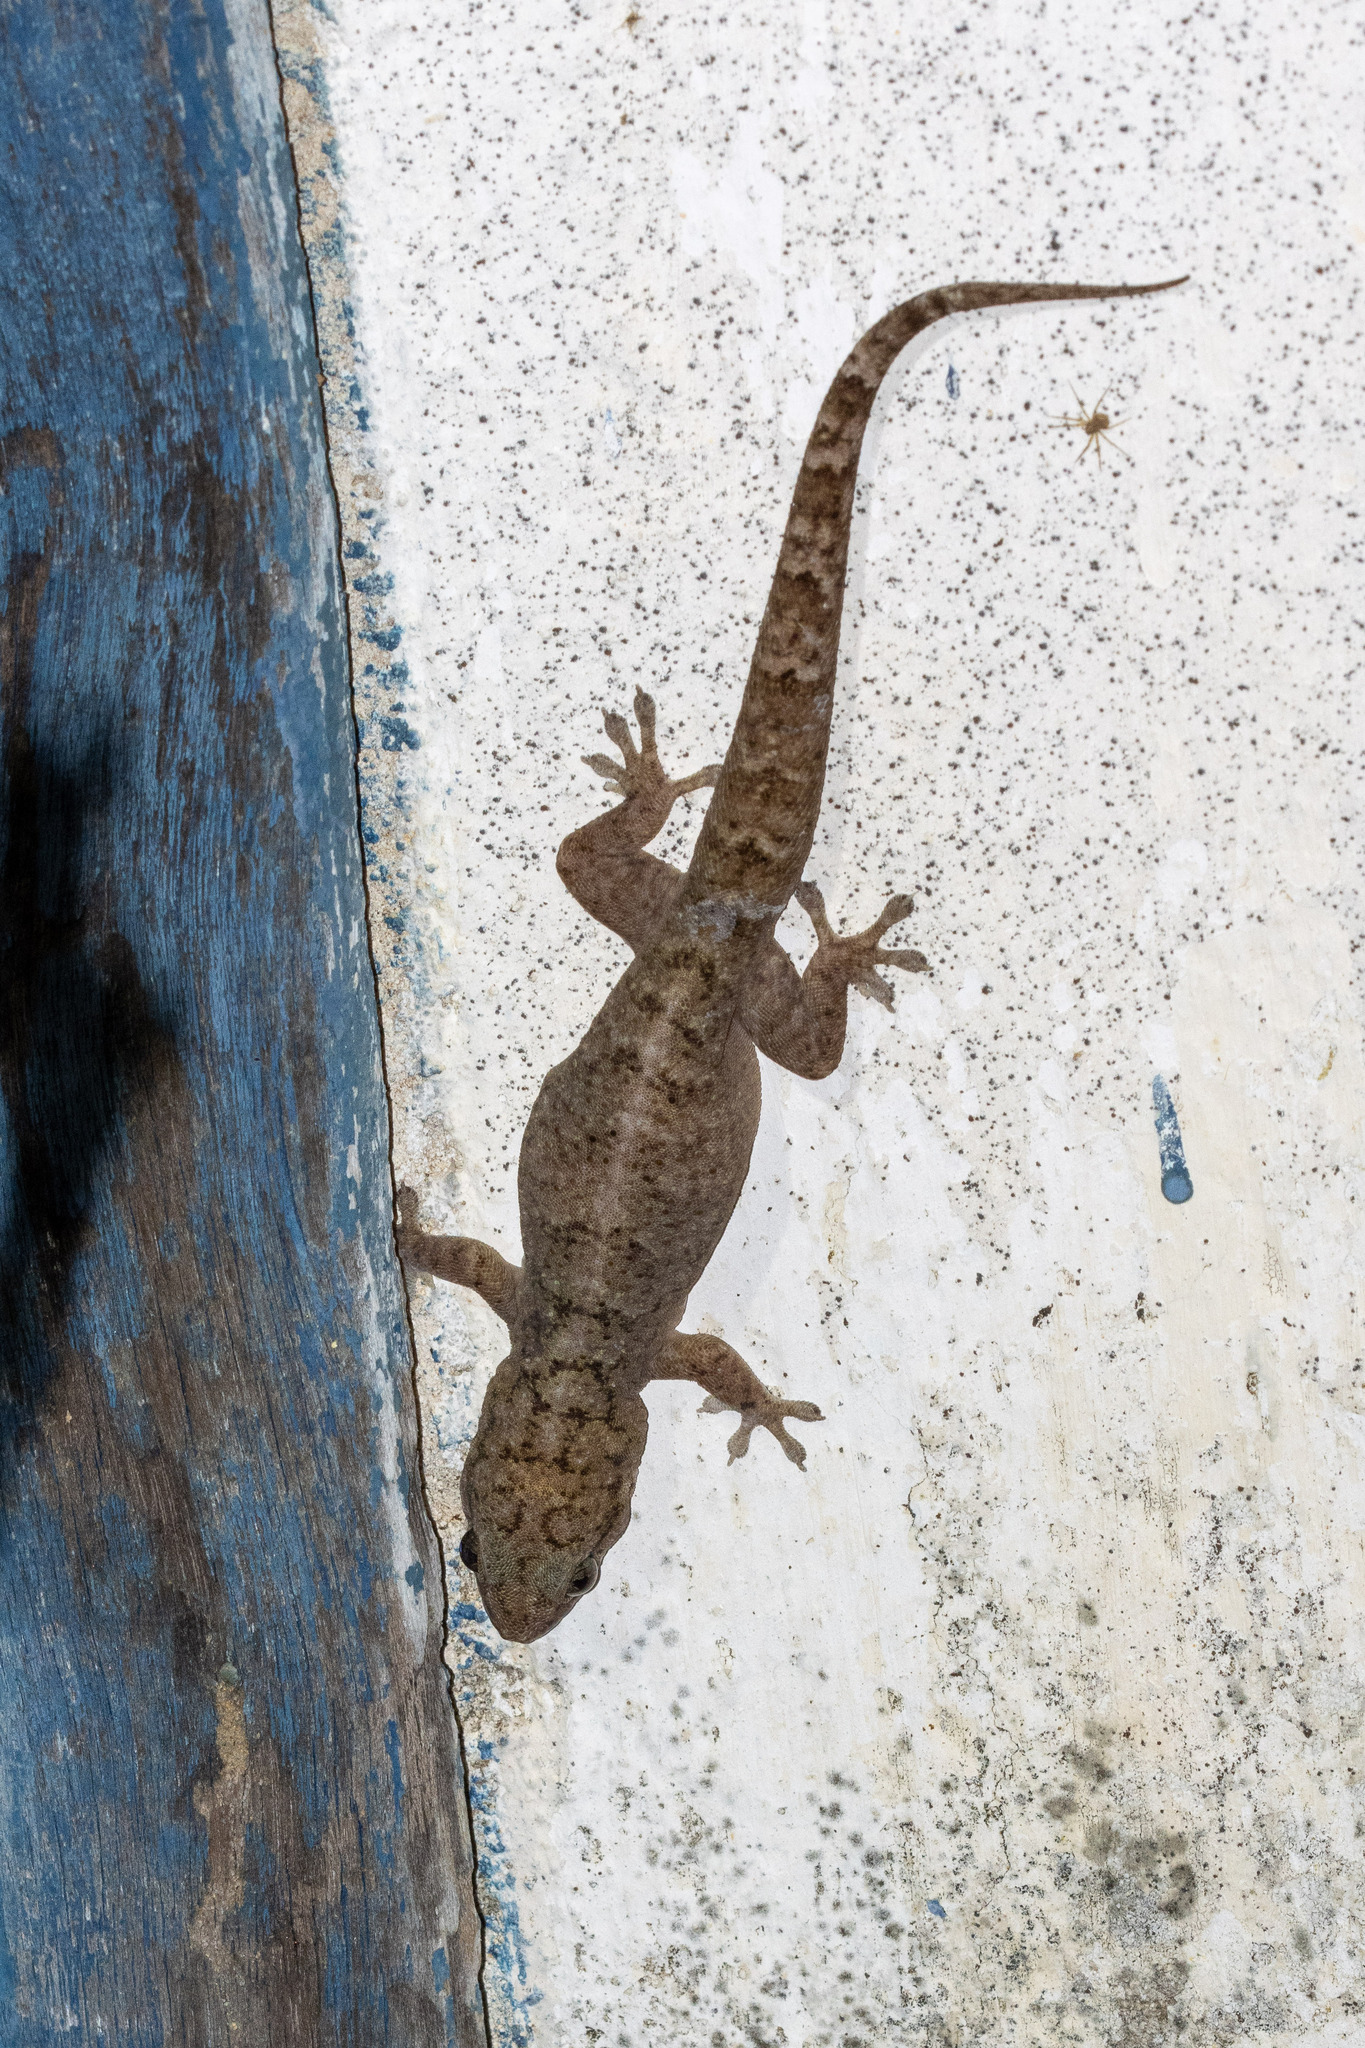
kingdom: Animalia
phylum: Chordata
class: Squamata
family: Phyllodactylidae
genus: Phyllopezus
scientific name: Phyllopezus pollicaris
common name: Brazilian gecko
